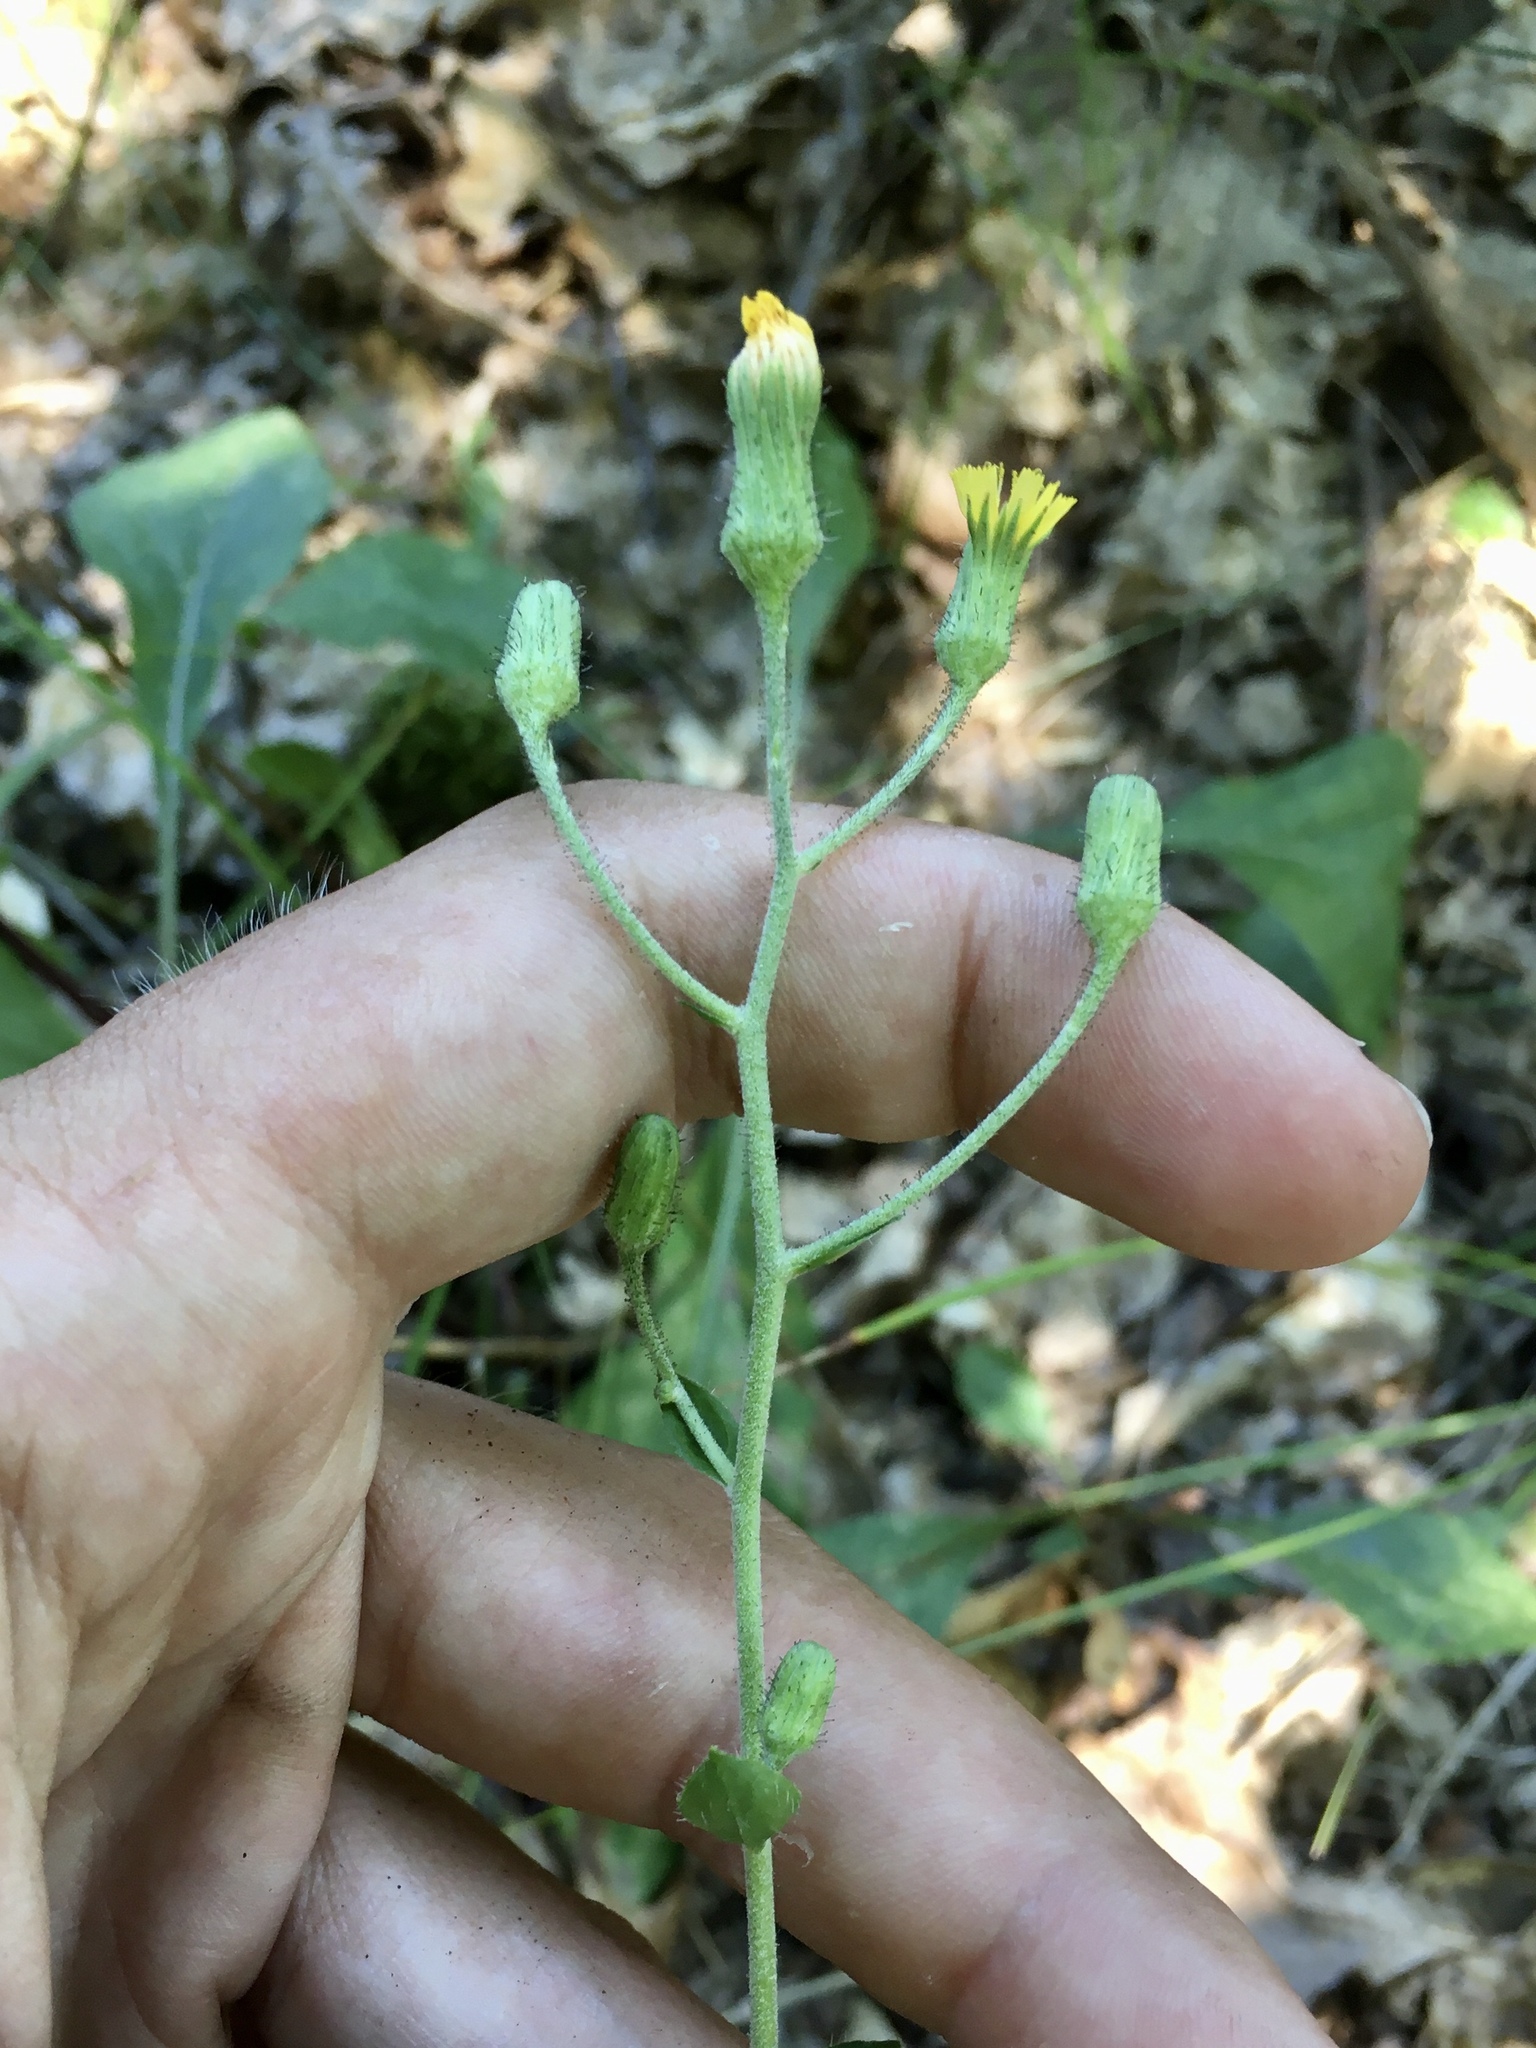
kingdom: Plantae
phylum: Tracheophyta
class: Magnoliopsida
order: Asterales
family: Asteraceae
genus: Hieracium
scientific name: Hieracium scabrum
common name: Rough hawkweed
